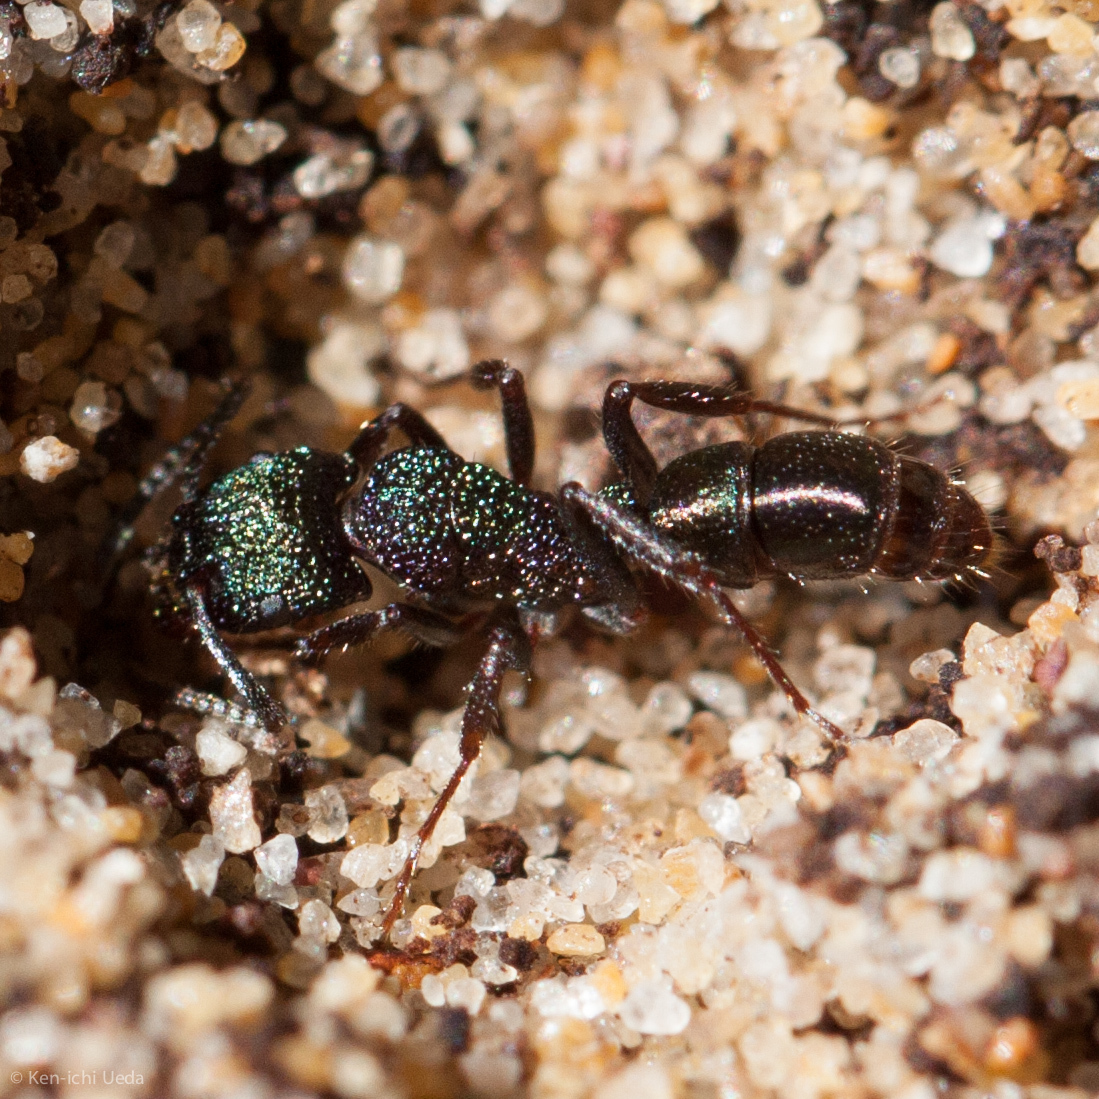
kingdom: Animalia
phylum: Arthropoda
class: Insecta
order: Hymenoptera
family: Formicidae
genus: Rhytidoponera
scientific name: Rhytidoponera metallica
